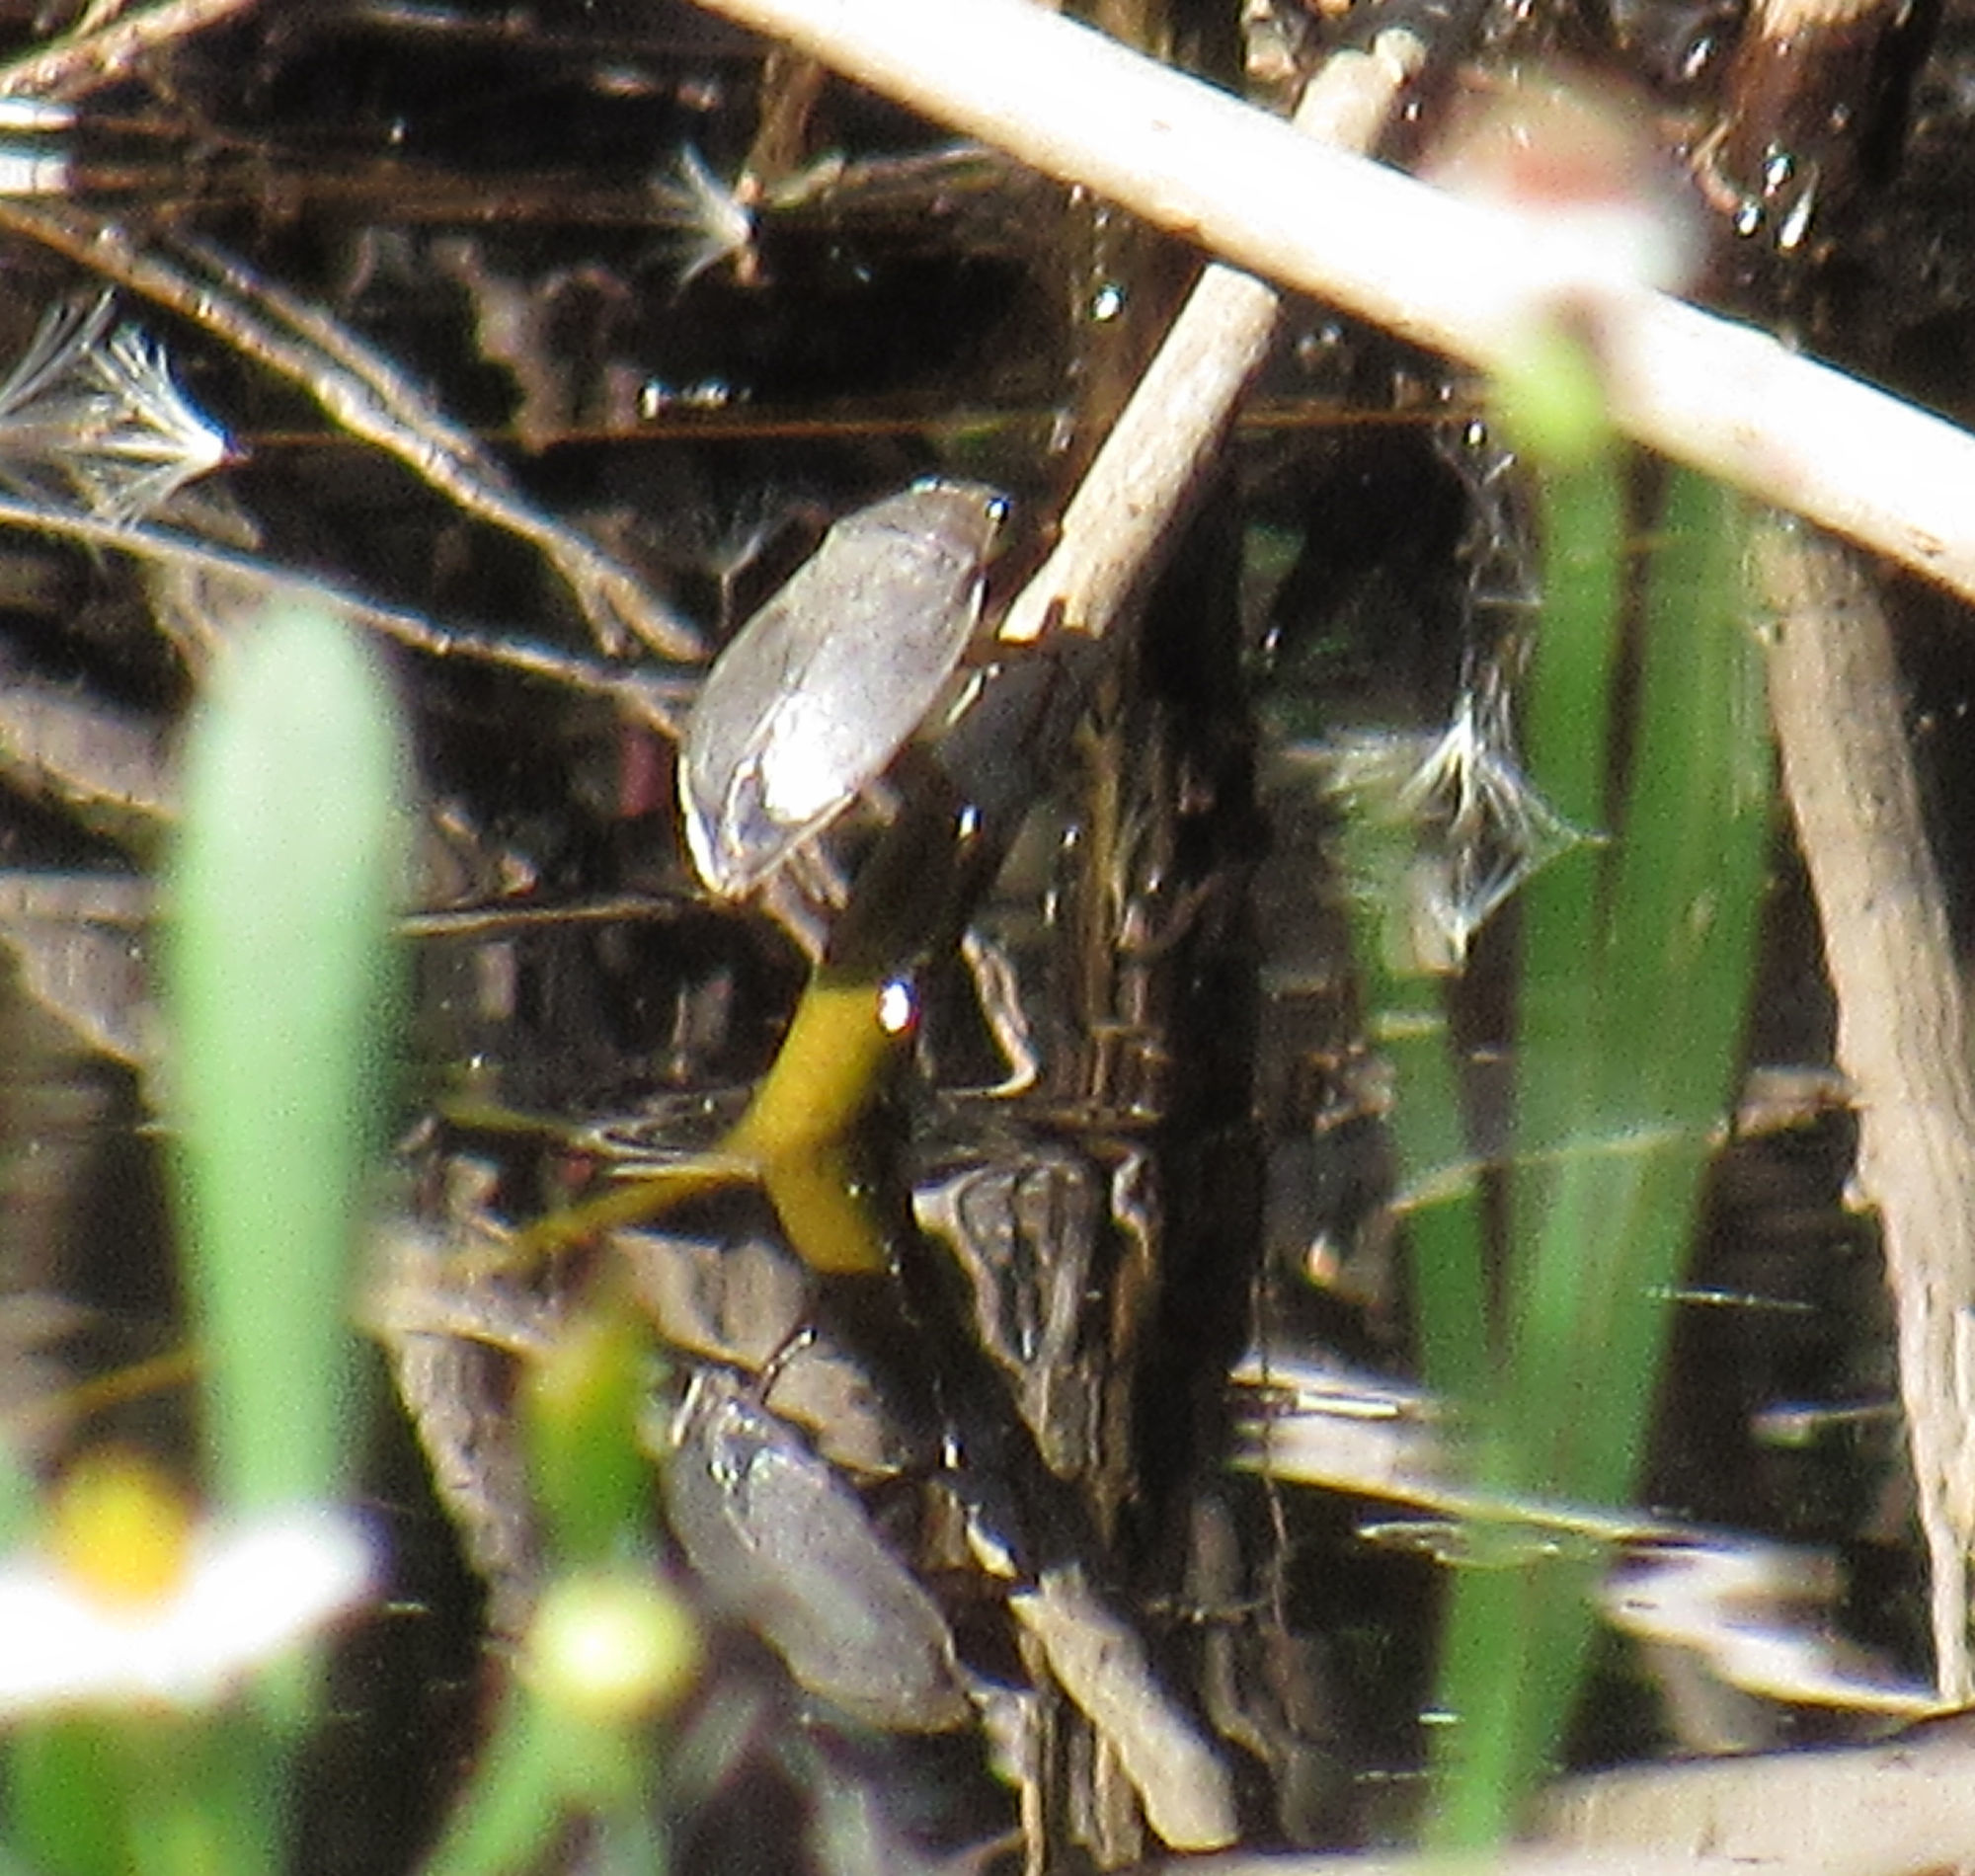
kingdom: Animalia
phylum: Arthropoda
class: Insecta
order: Hemiptera
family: Belostomatidae
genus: Belostoma
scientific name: Belostoma
